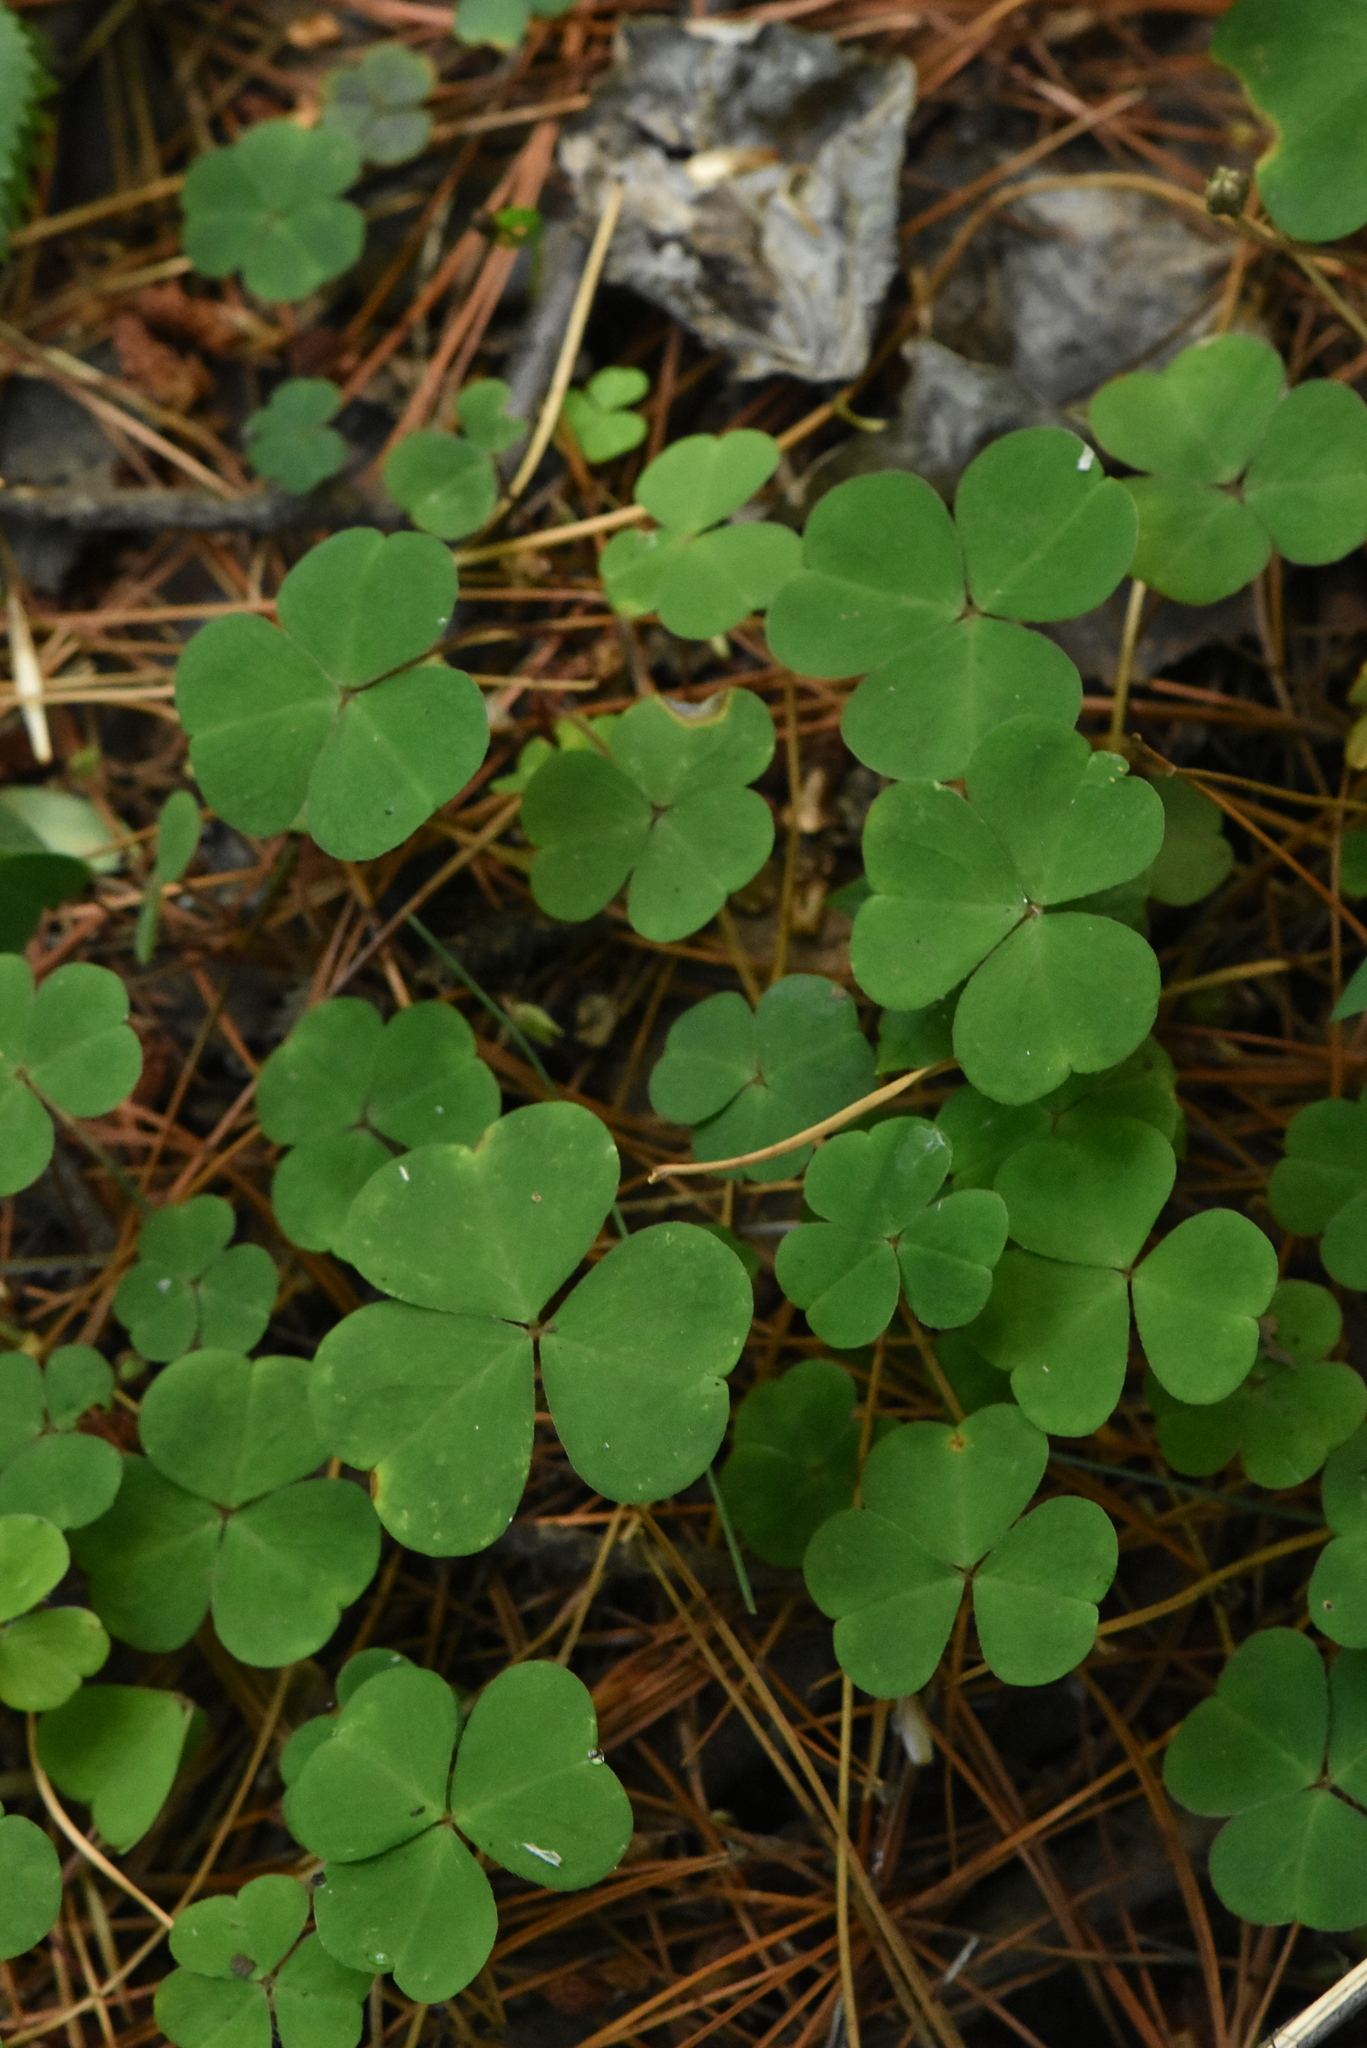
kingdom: Plantae
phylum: Tracheophyta
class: Magnoliopsida
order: Oxalidales
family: Oxalidaceae
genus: Oxalis
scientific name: Oxalis acetosella
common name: Wood-sorrel
